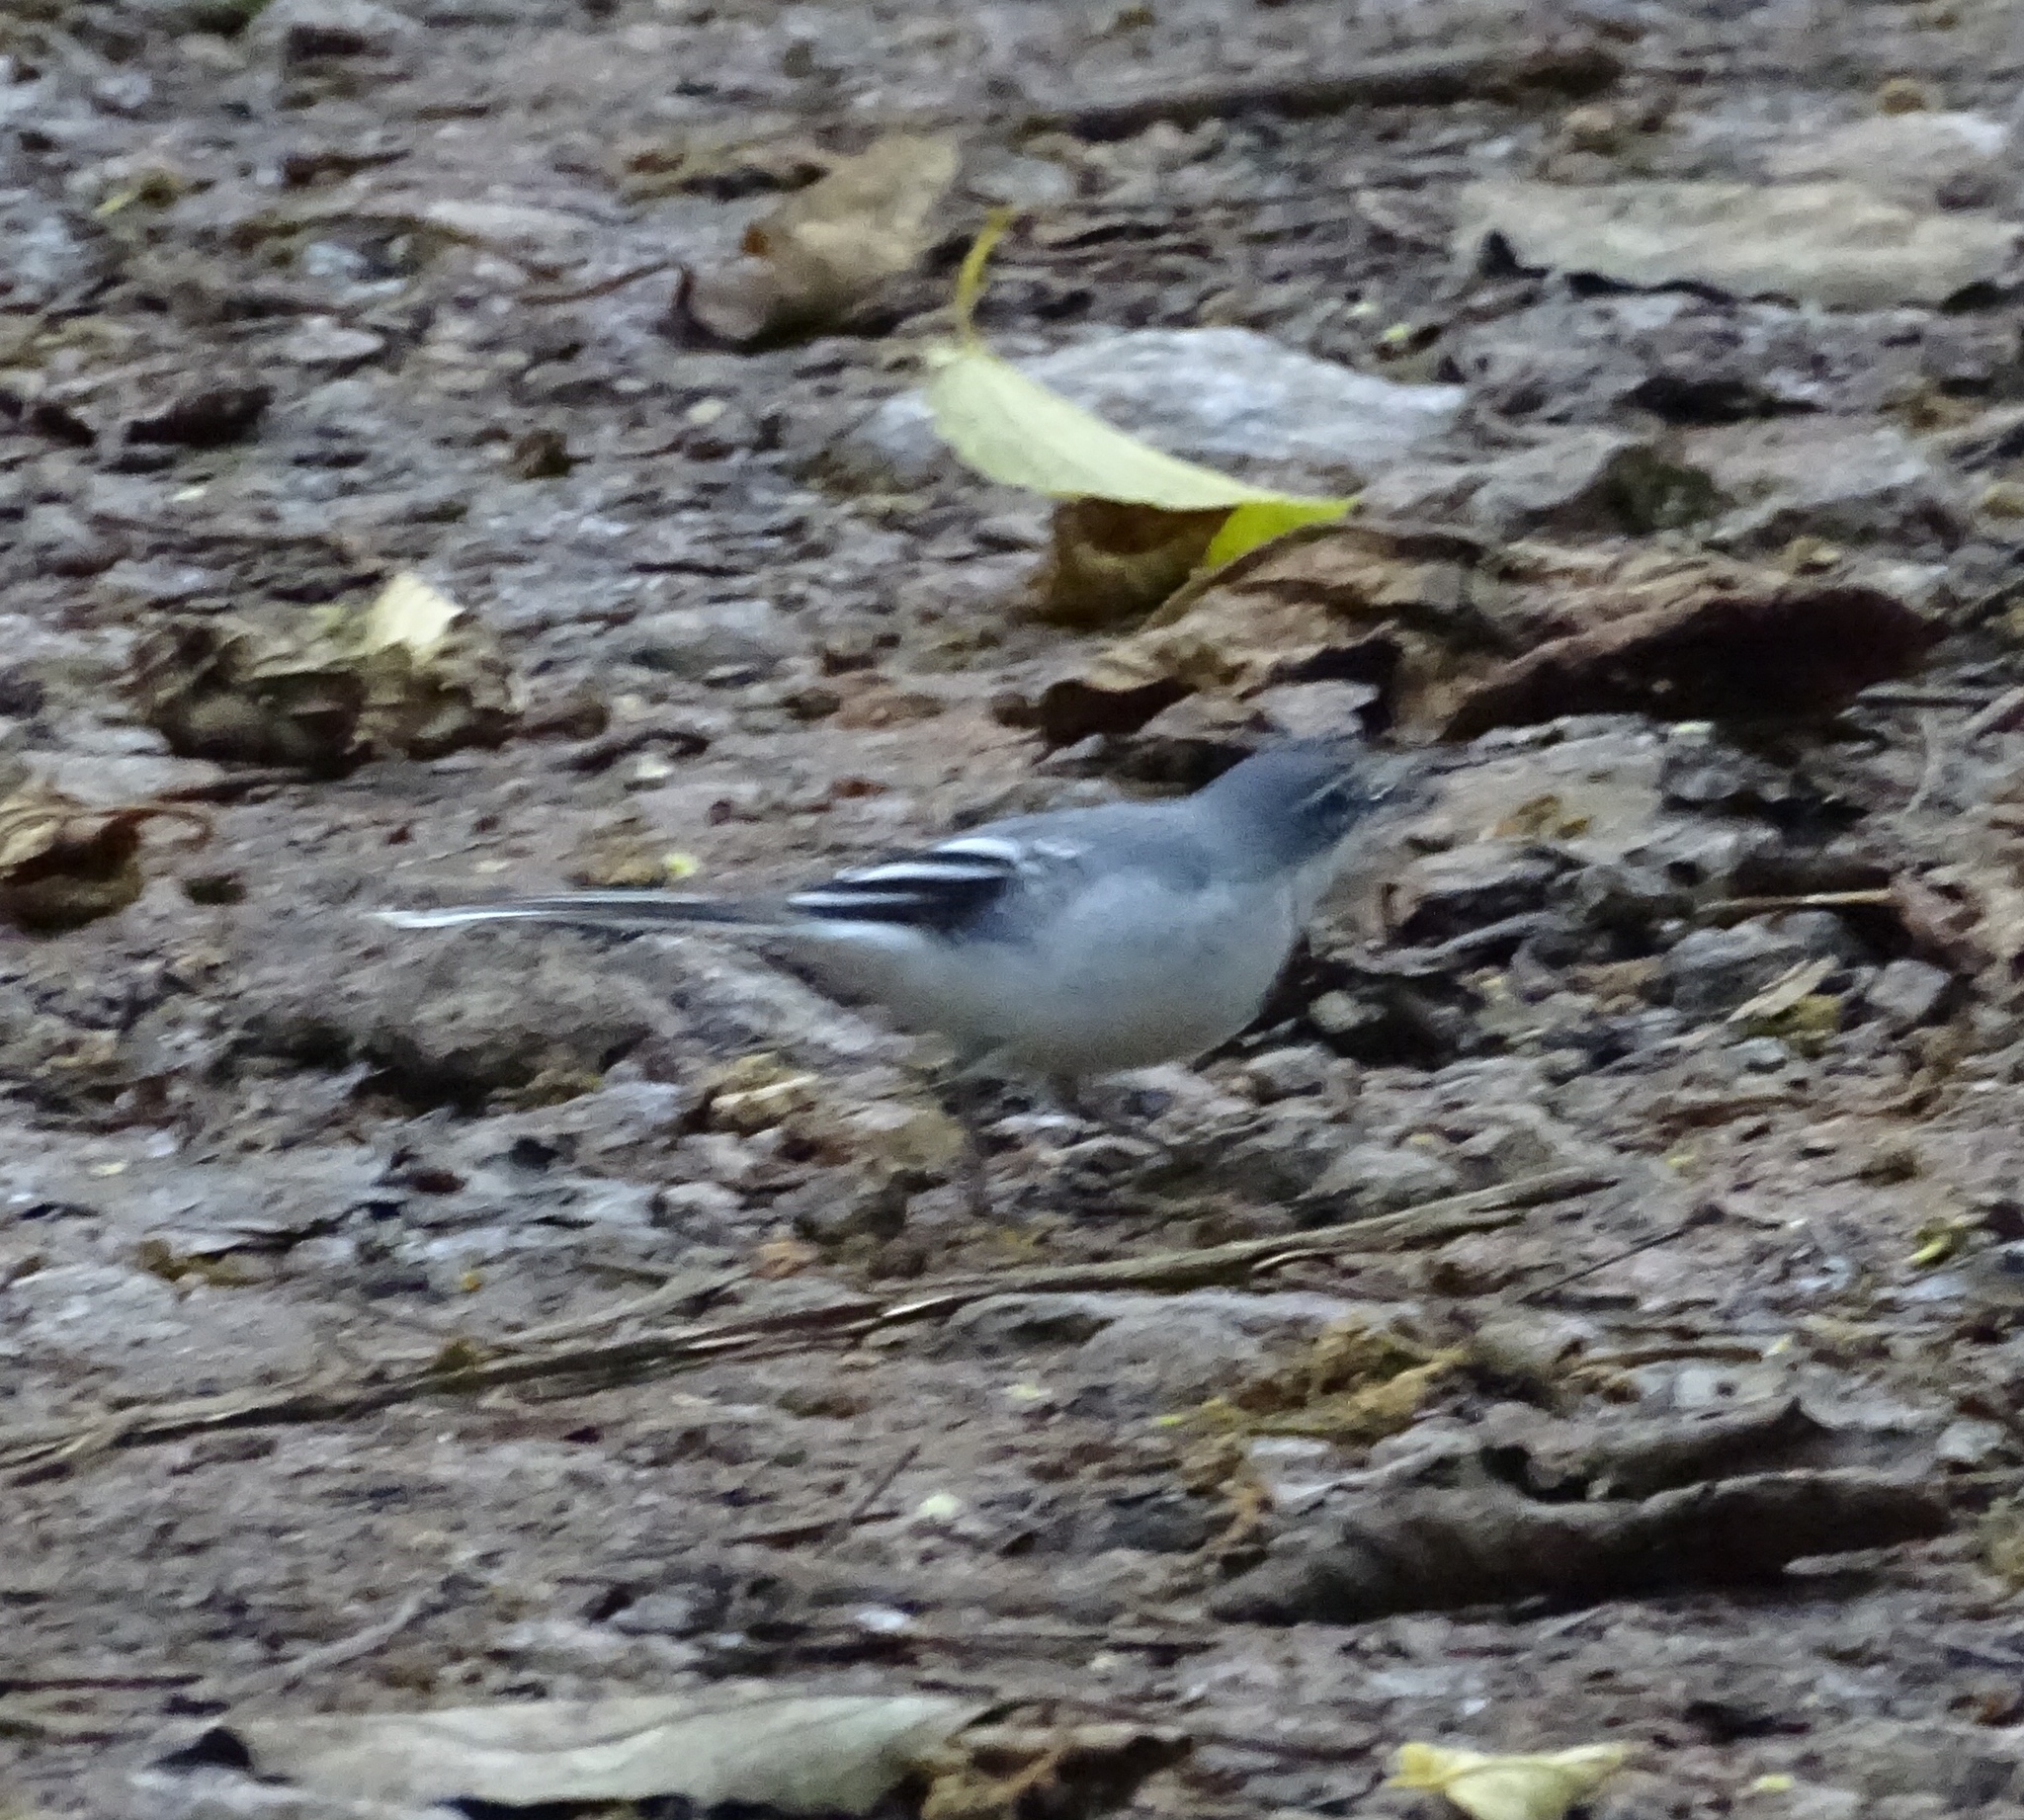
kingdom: Animalia
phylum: Chordata
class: Aves
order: Passeriformes
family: Motacillidae
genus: Motacilla
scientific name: Motacilla clara
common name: Mountain wagtail
